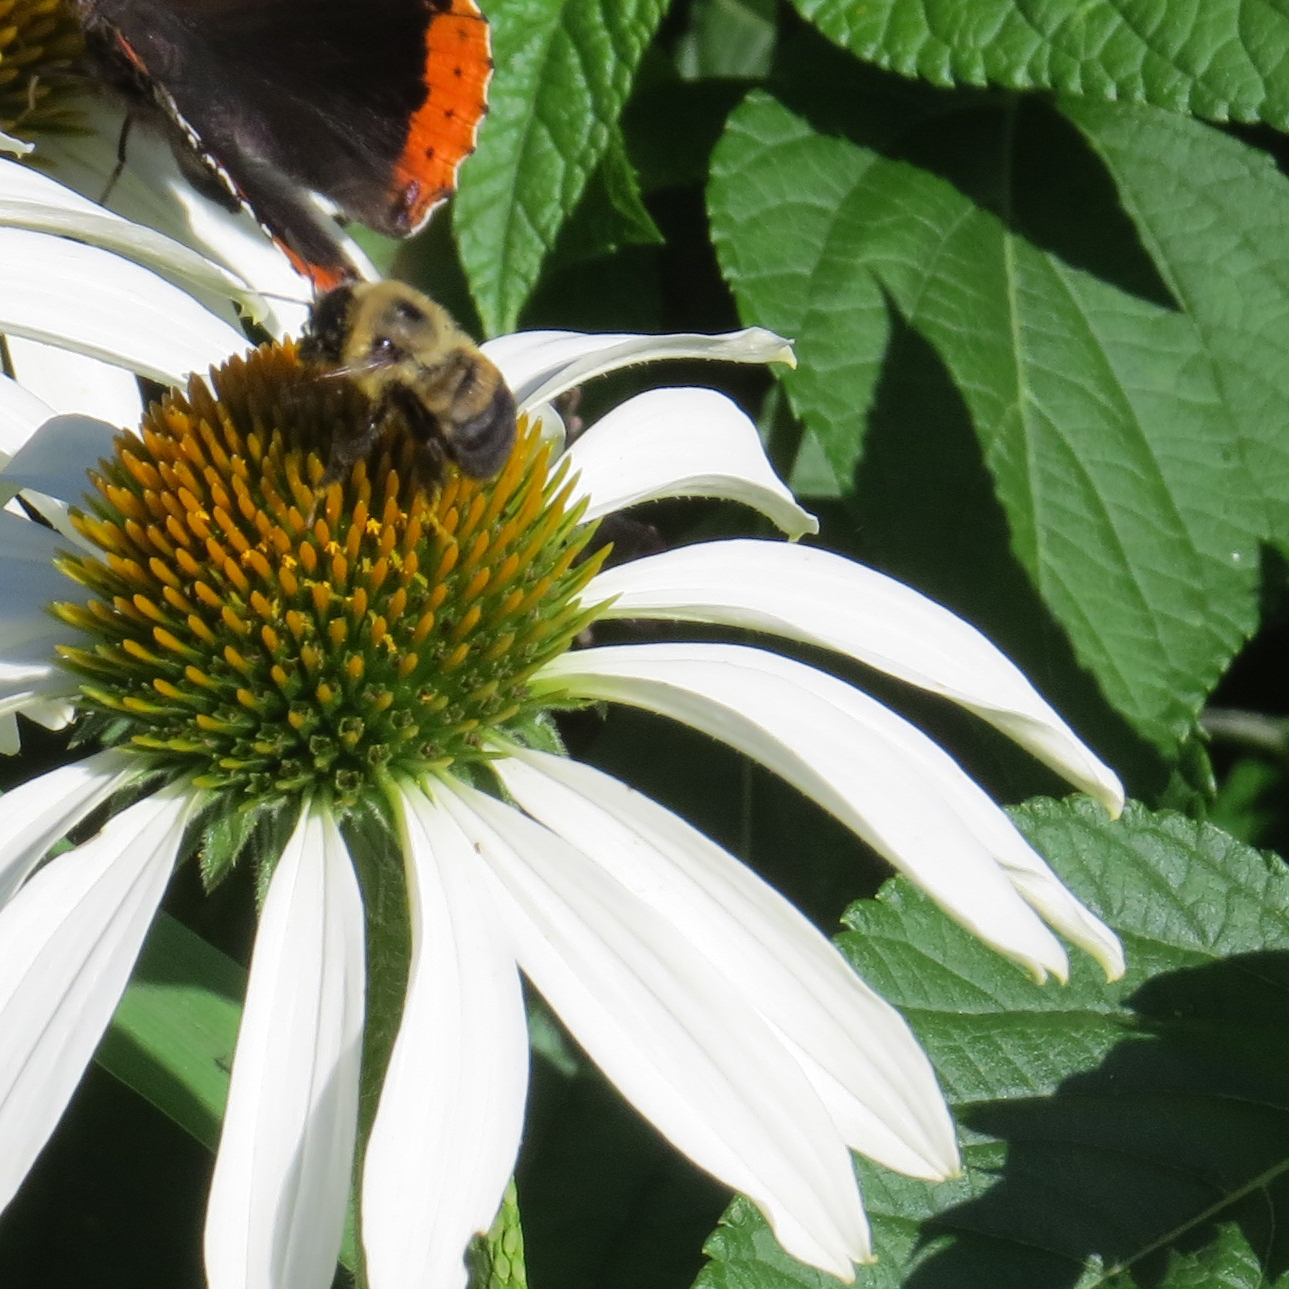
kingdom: Animalia
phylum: Arthropoda
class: Insecta
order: Hymenoptera
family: Apidae
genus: Bombus
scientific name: Bombus griseocollis
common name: Brown-belted bumble bee
